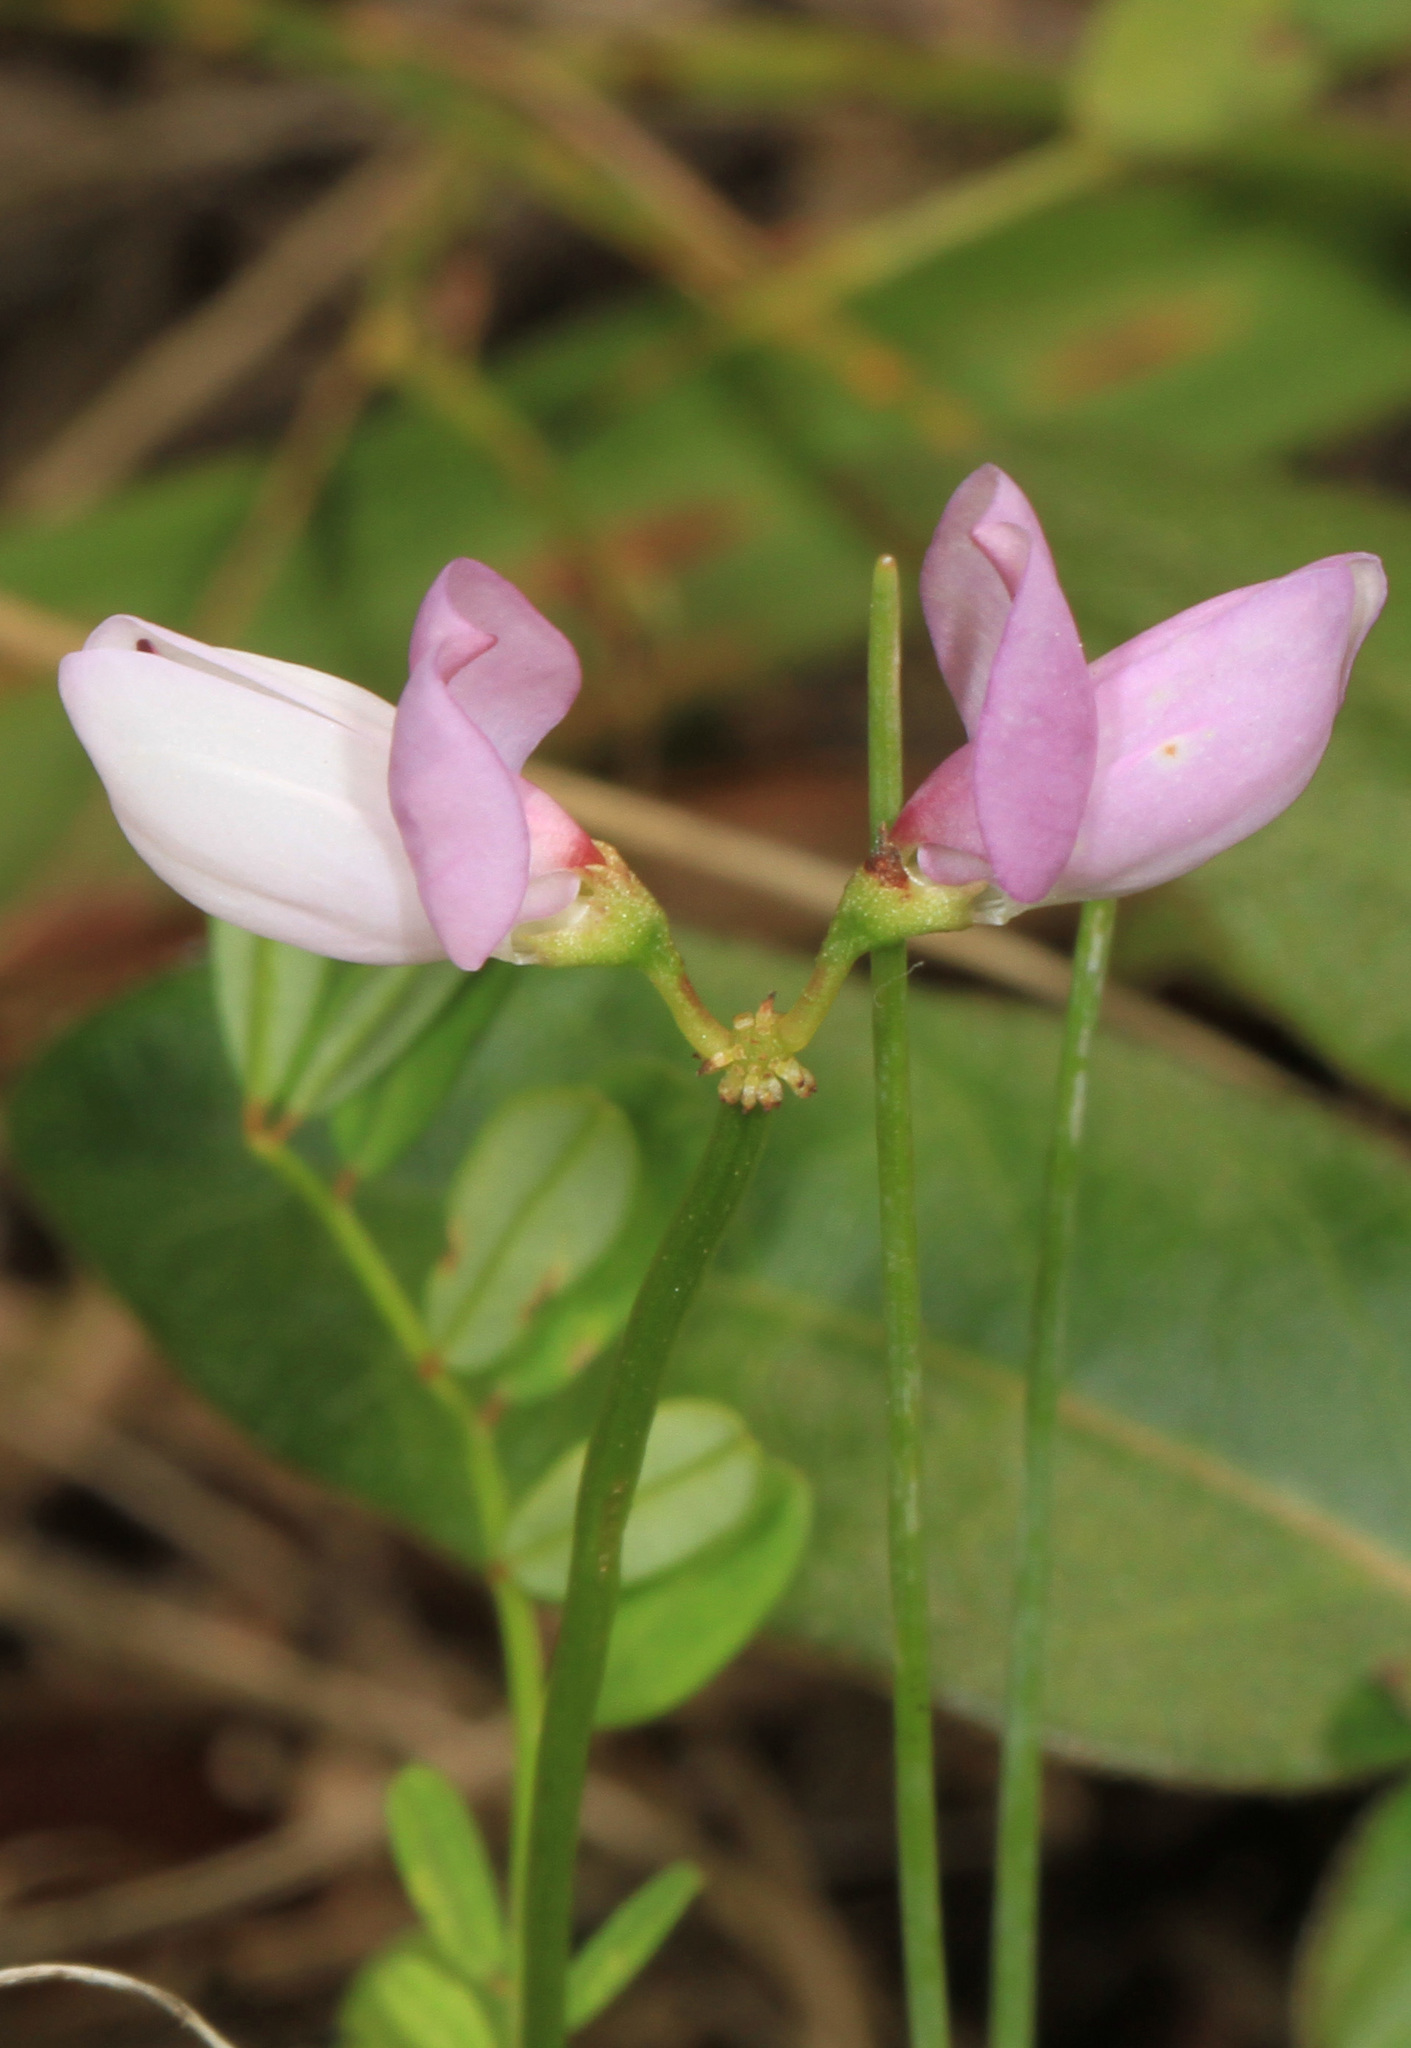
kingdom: Plantae
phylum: Tracheophyta
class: Magnoliopsida
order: Fabales
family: Fabaceae
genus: Coronilla
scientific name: Coronilla varia
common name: Crownvetch
